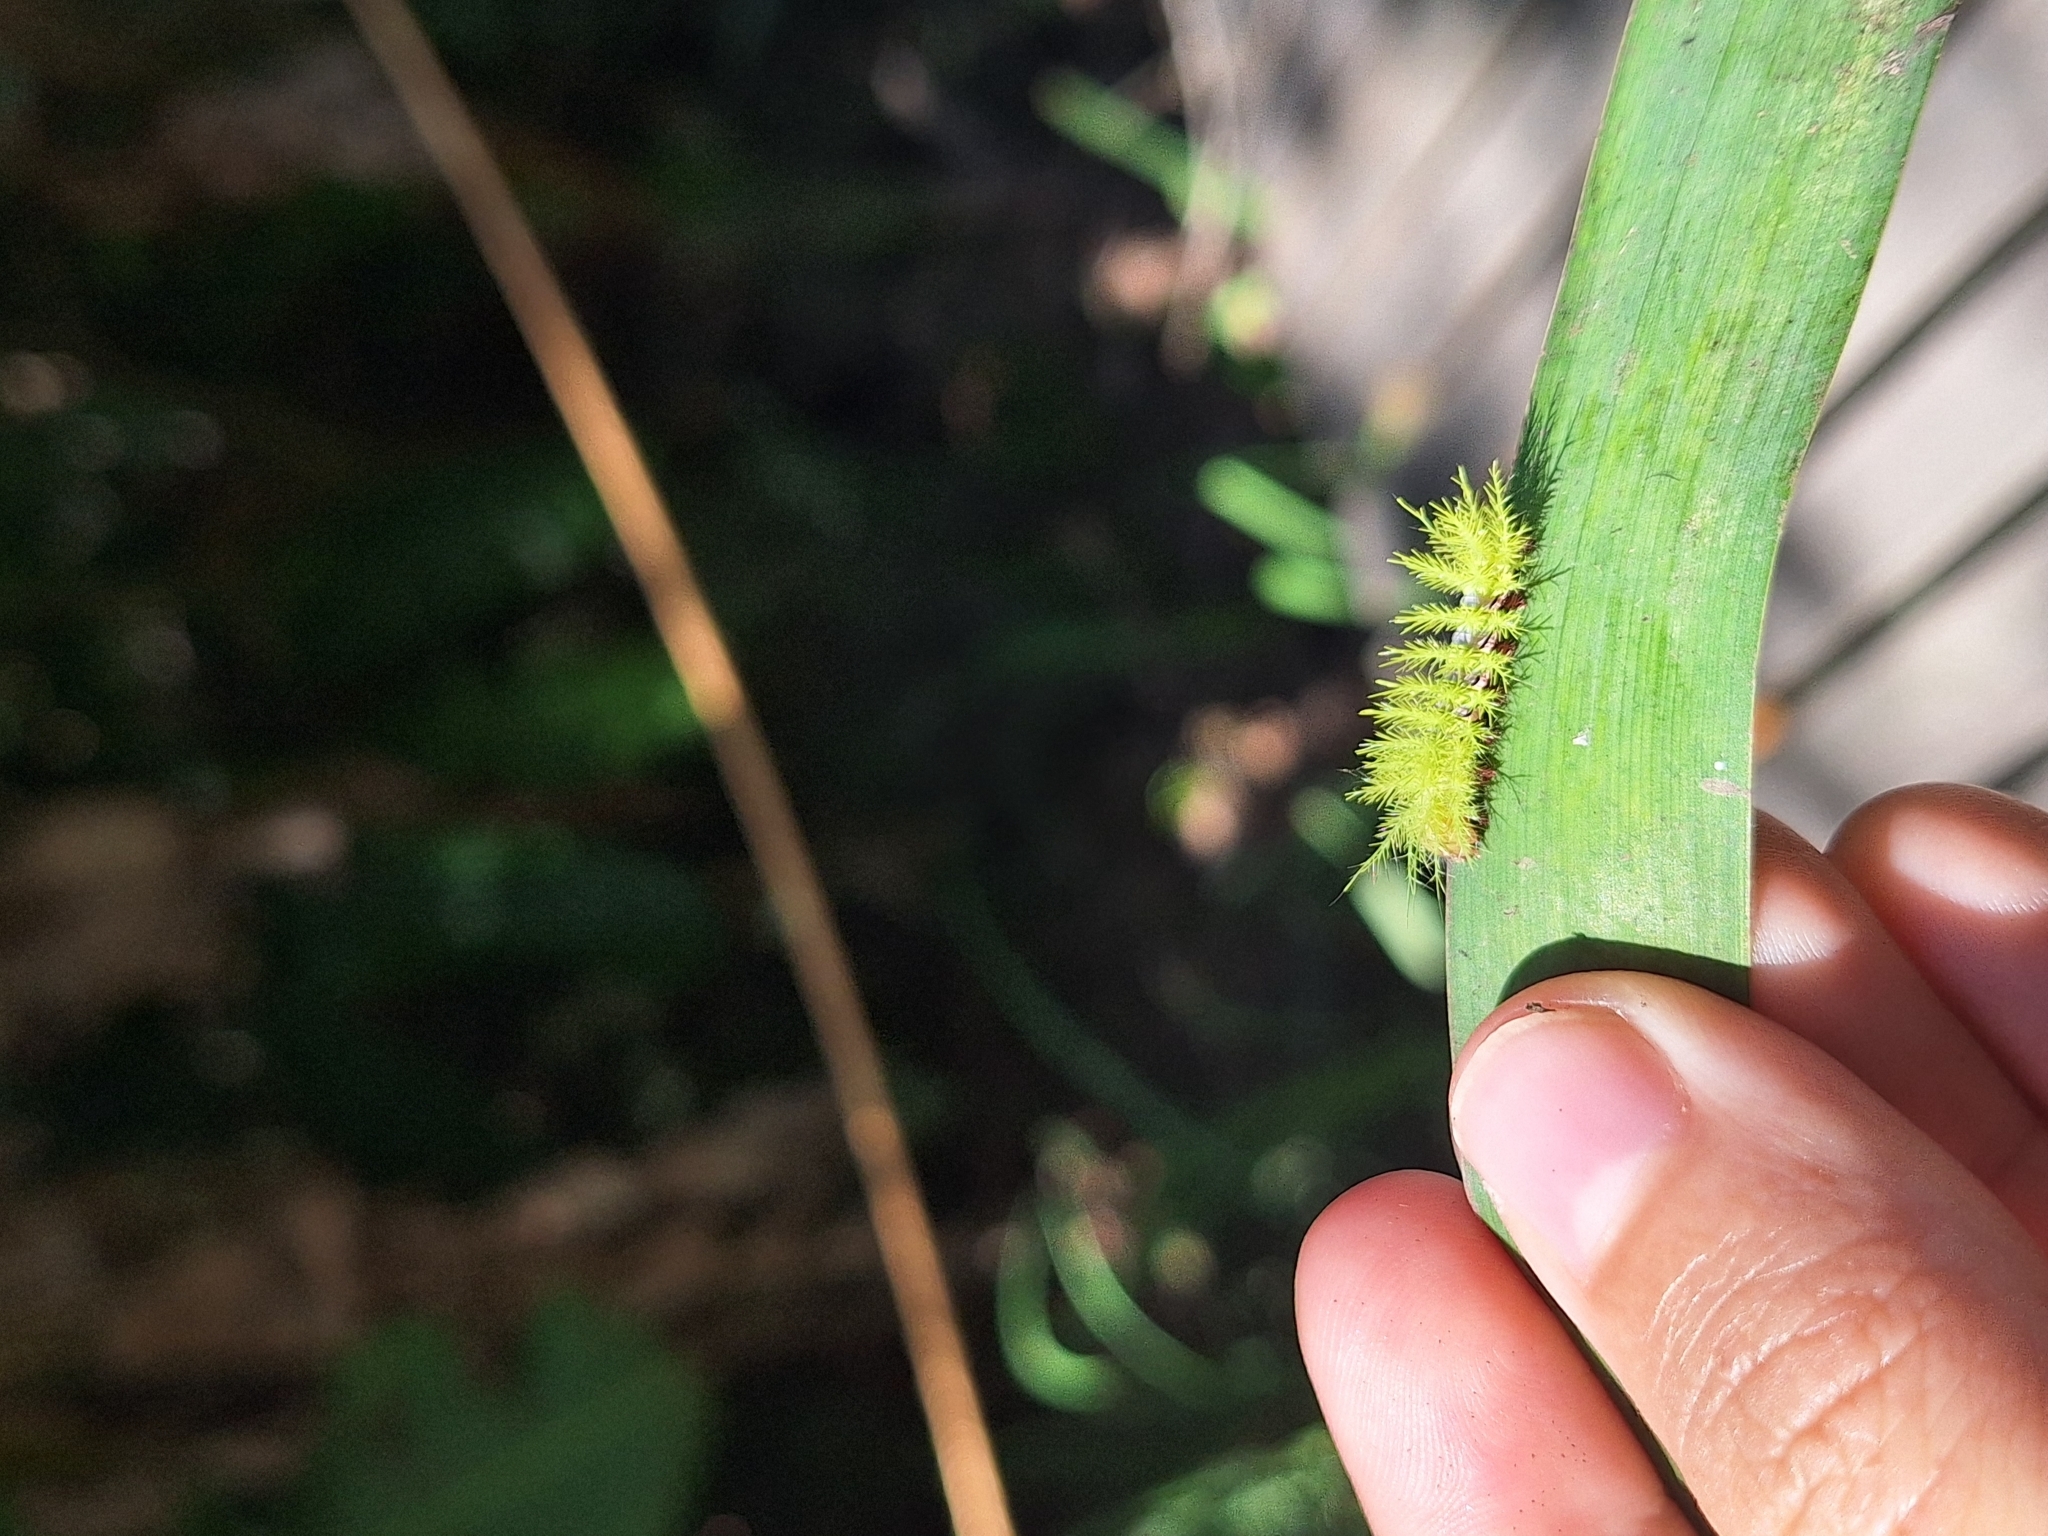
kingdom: Animalia
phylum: Arthropoda
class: Insecta
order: Lepidoptera
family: Saturniidae
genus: Automeris
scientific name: Automeris naranja
